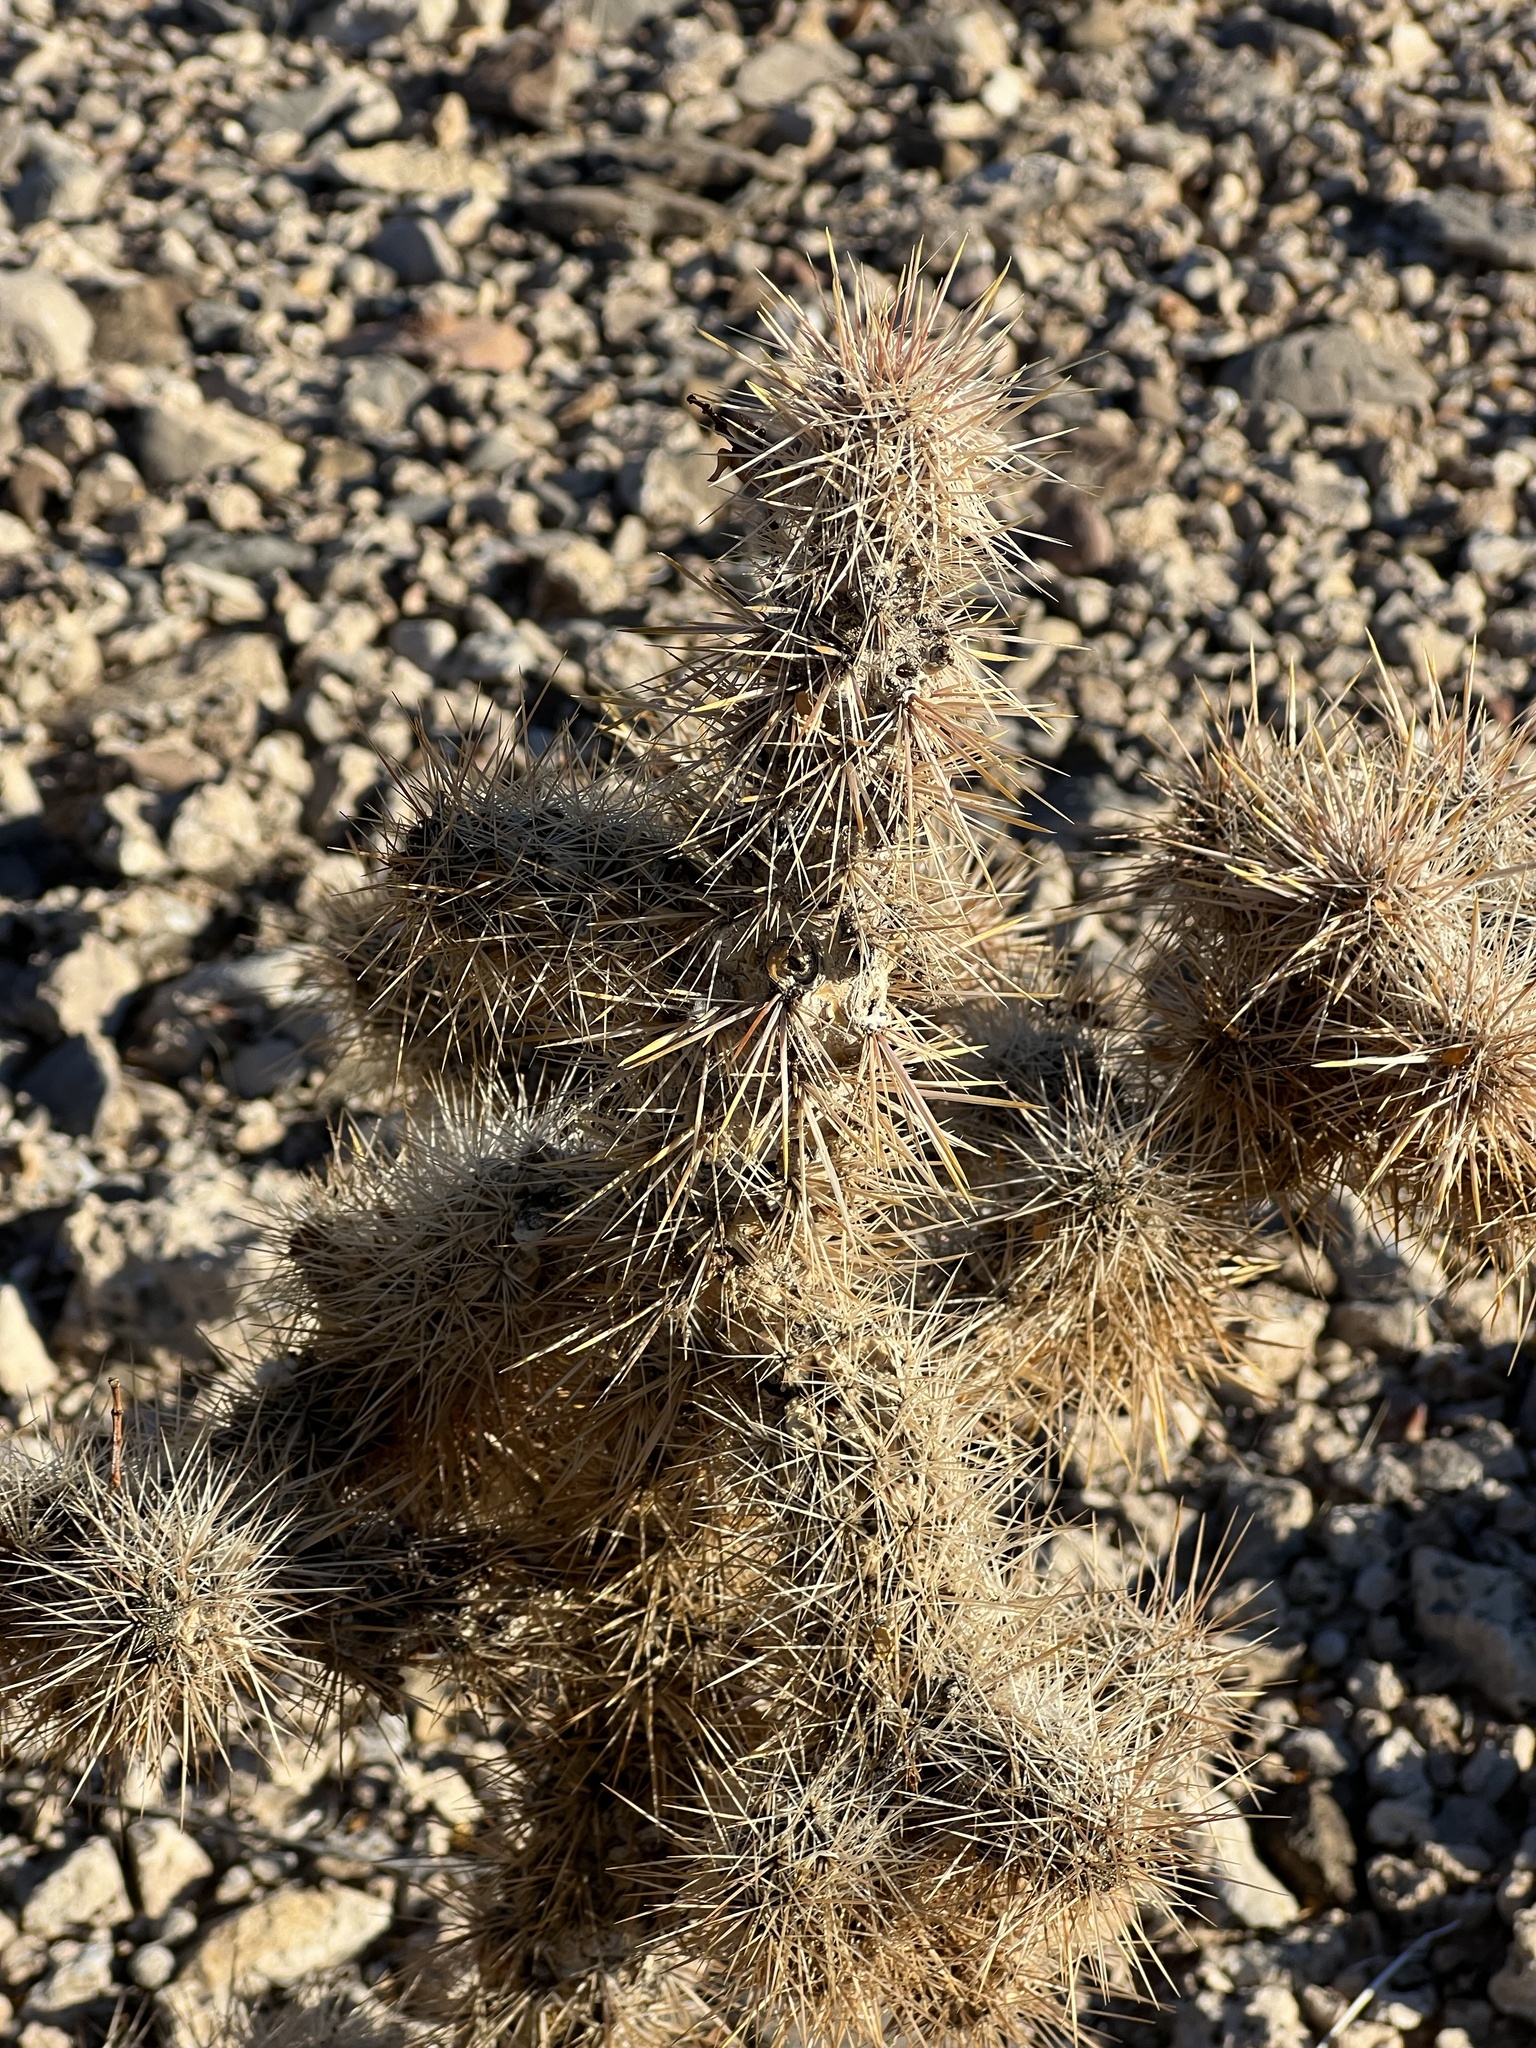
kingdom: Plantae
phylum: Tracheophyta
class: Magnoliopsida
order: Caryophyllales
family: Cactaceae
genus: Cylindropuntia
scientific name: Cylindropuntia echinocarpa
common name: Ground cholla
